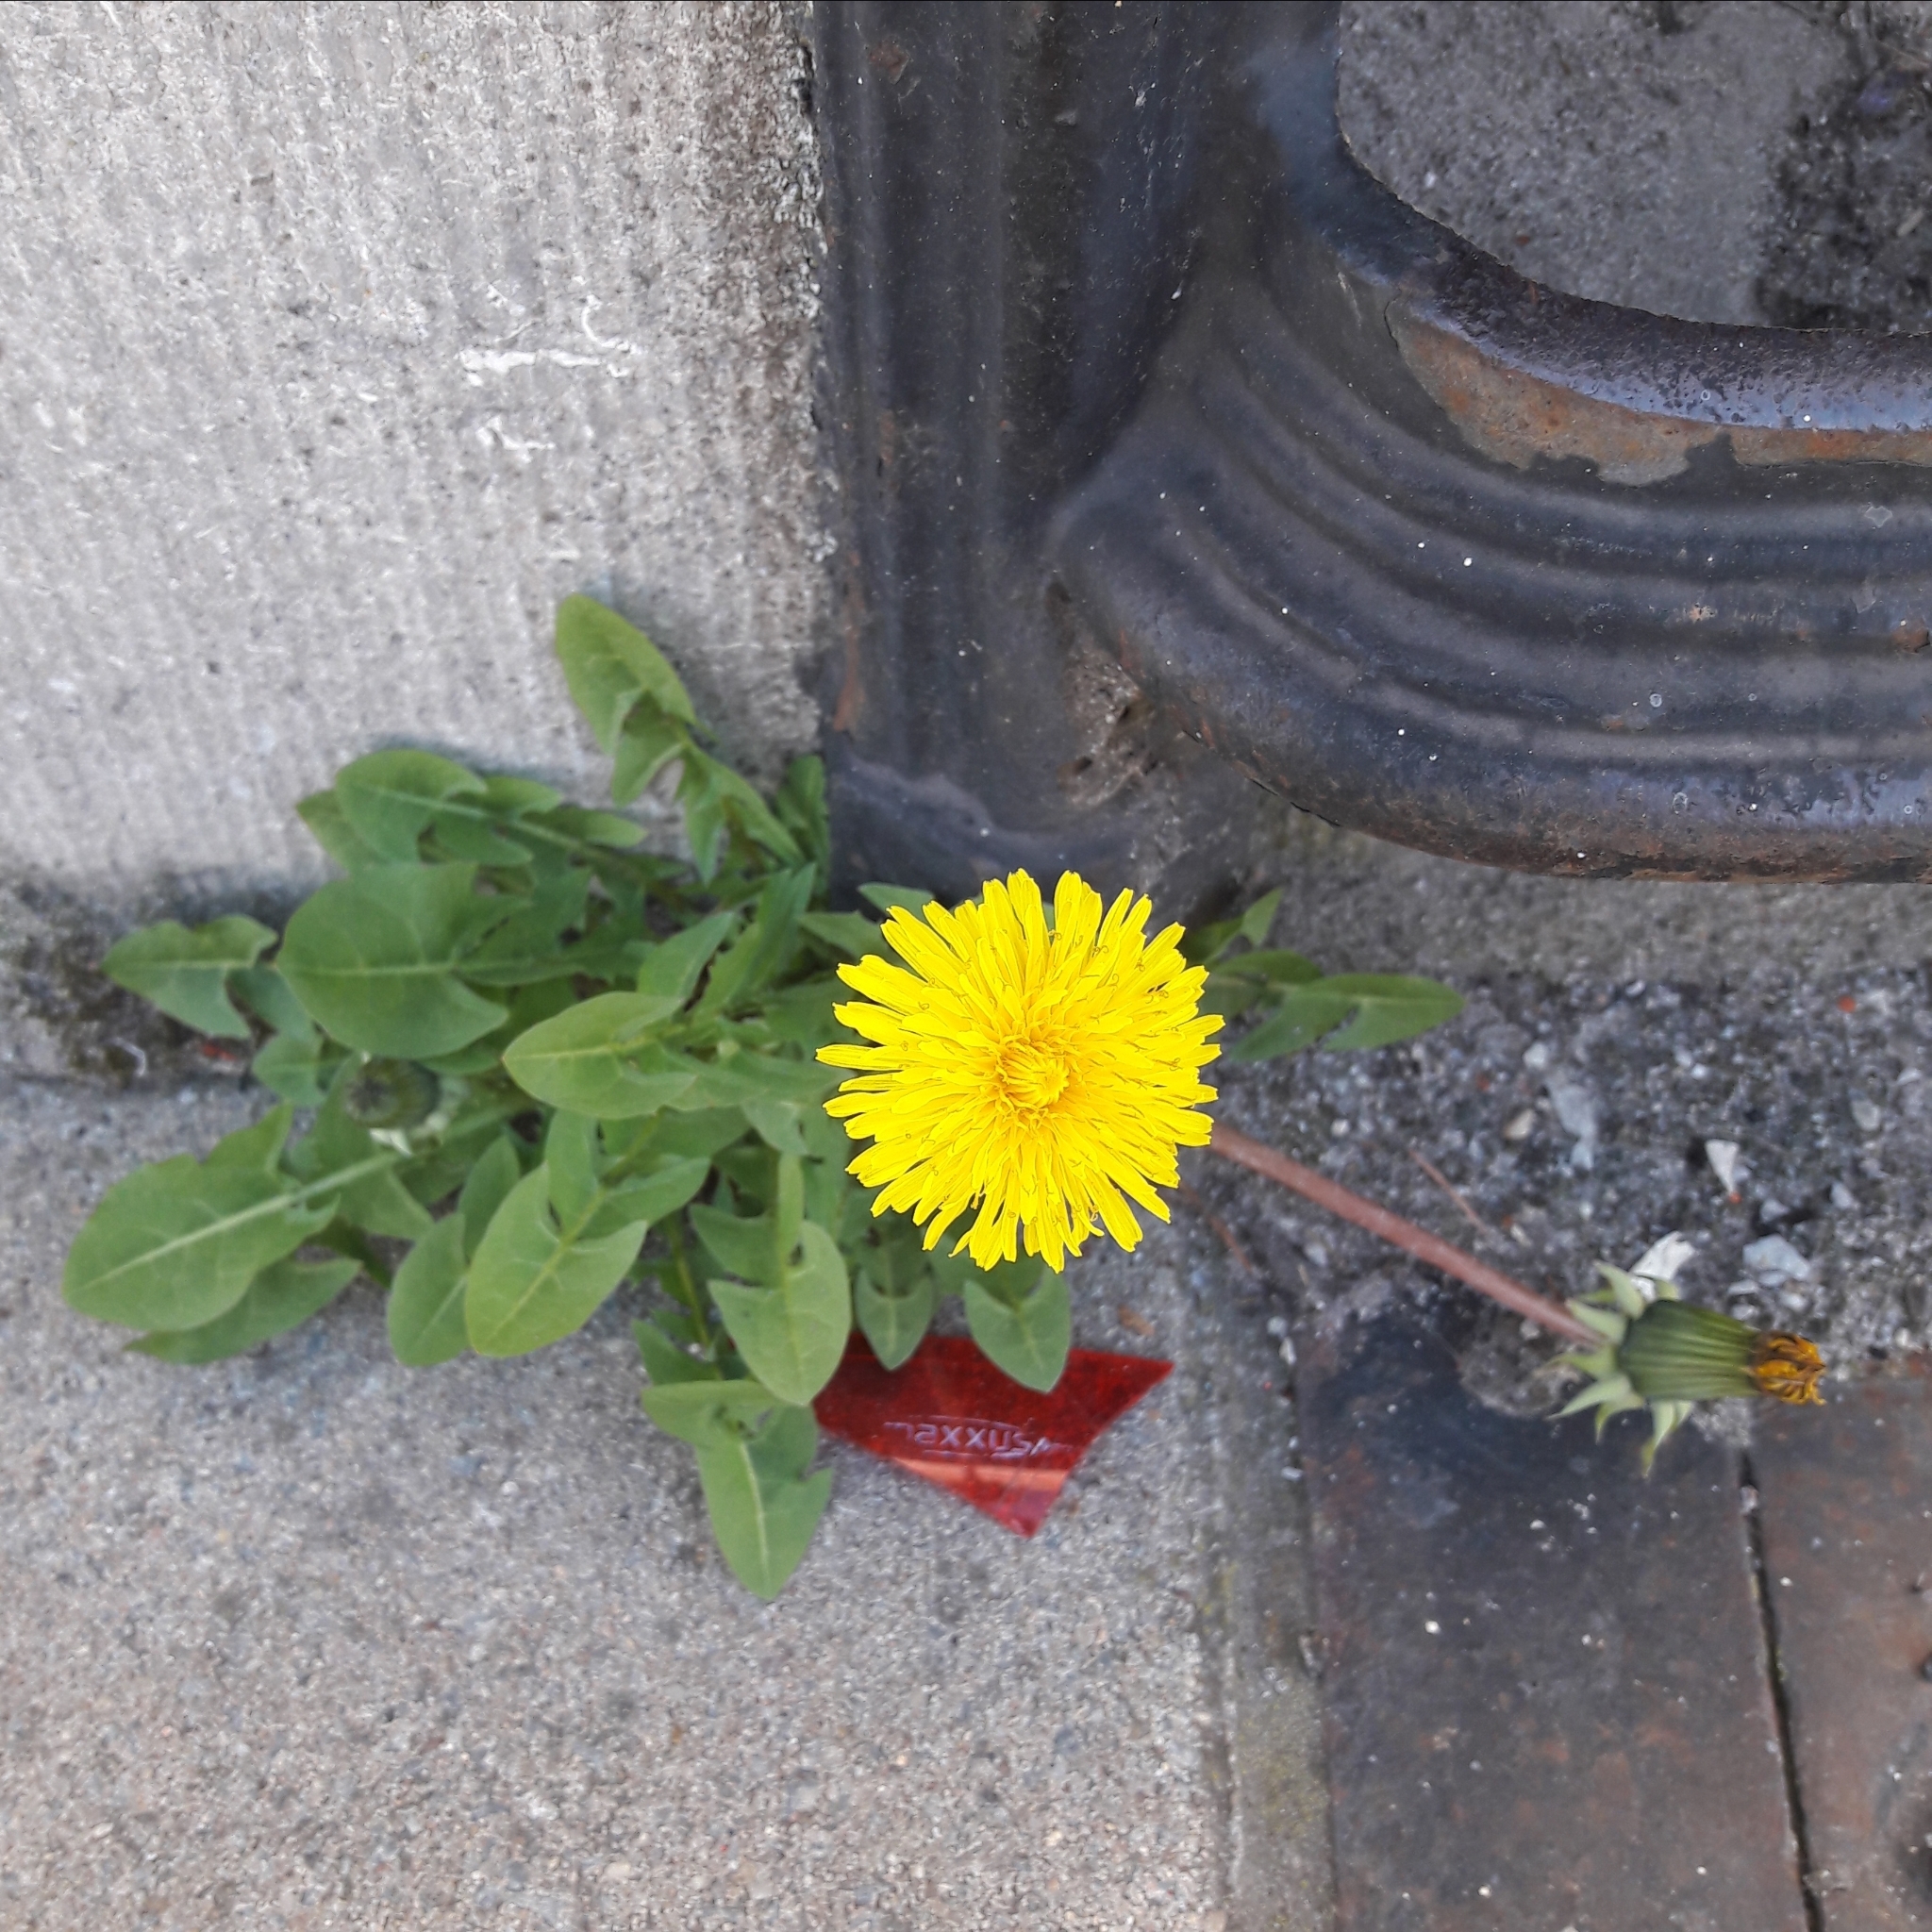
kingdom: Plantae
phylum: Tracheophyta
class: Magnoliopsida
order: Asterales
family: Asteraceae
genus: Taraxacum
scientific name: Taraxacum officinale
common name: Common dandelion
